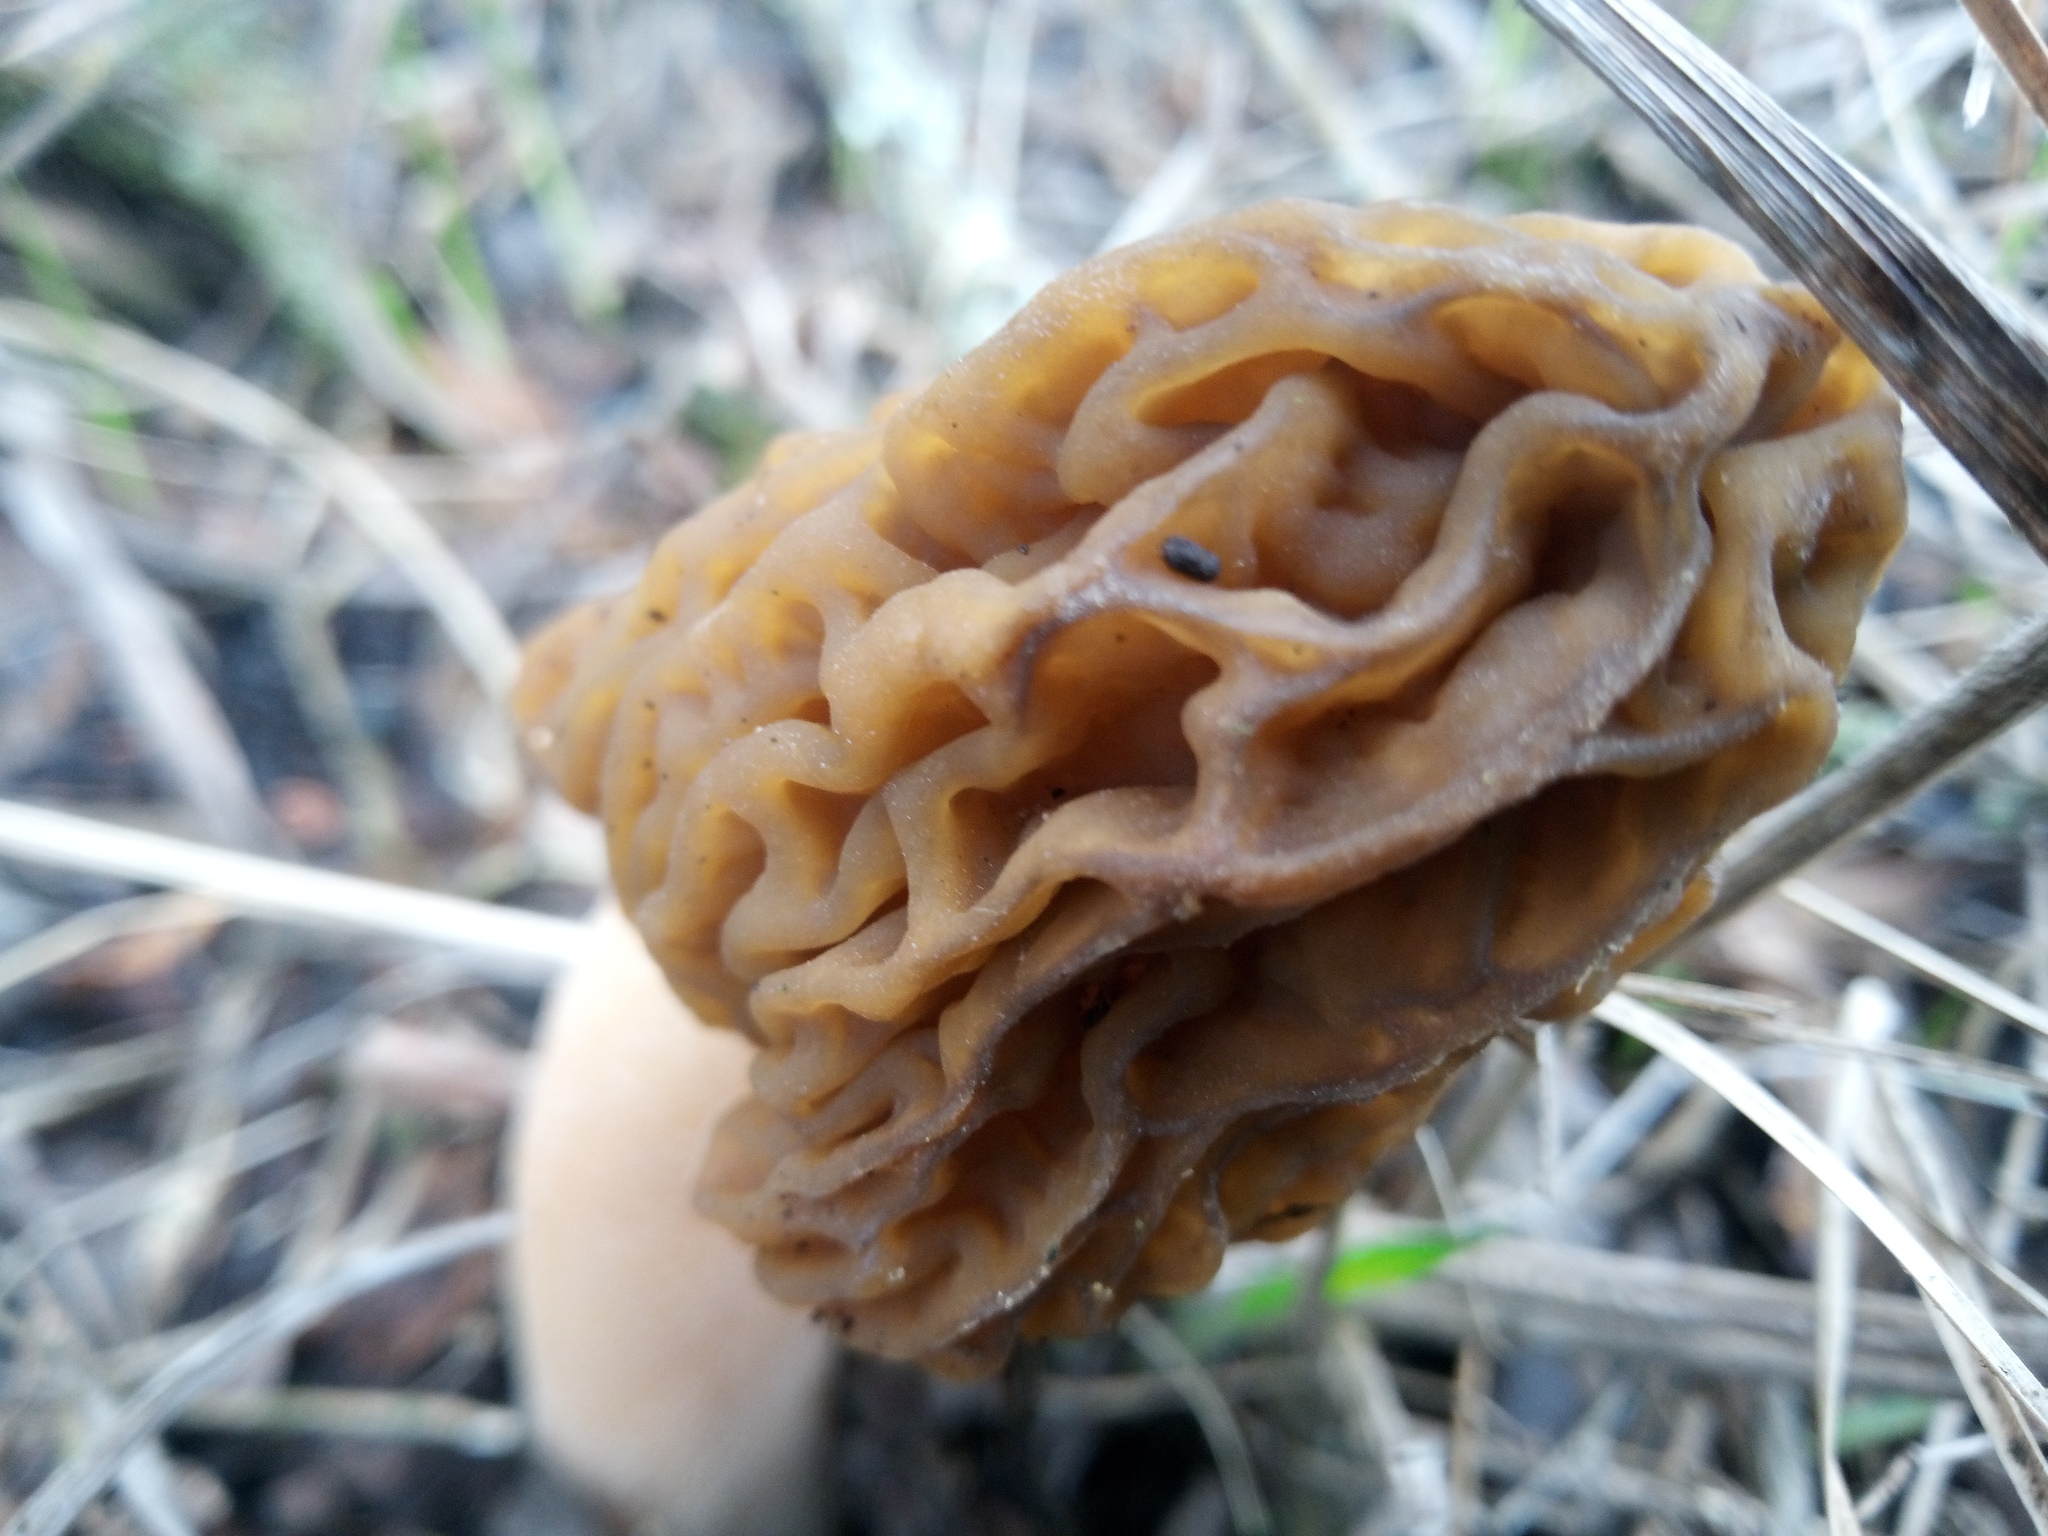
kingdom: Fungi
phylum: Ascomycota
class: Pezizomycetes
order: Pezizales
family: Morchellaceae
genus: Verpa
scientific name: Verpa bohemica
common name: Wrinkled thimble morel
